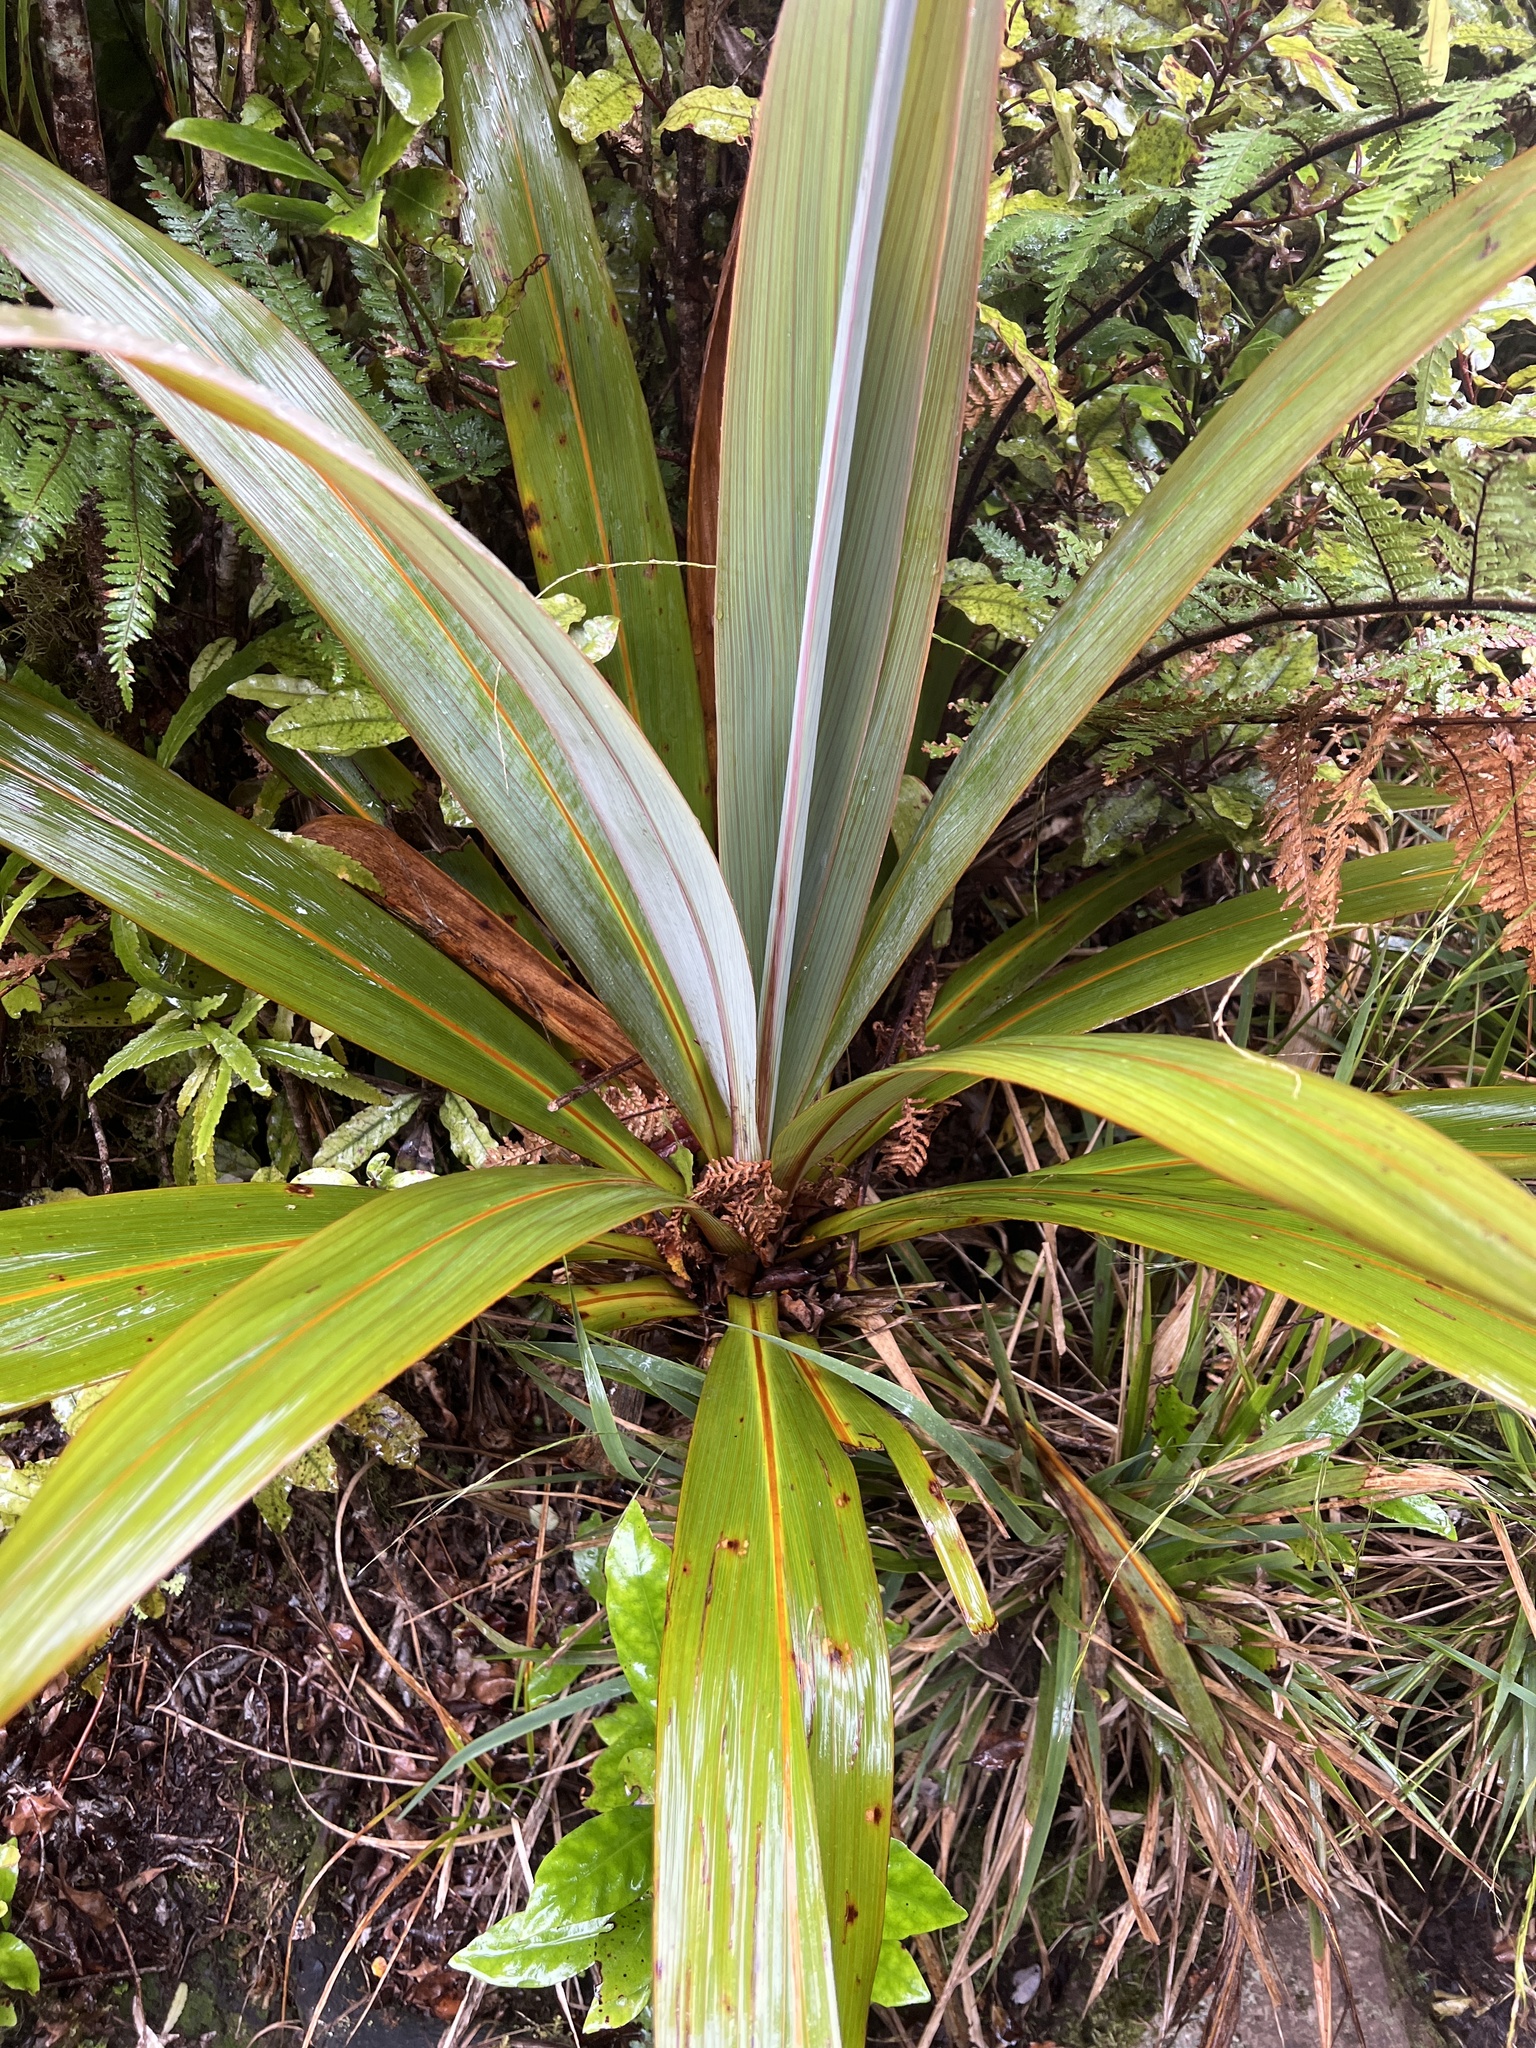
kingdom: Plantae
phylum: Tracheophyta
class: Liliopsida
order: Asparagales
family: Asparagaceae
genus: Cordyline
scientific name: Cordyline indivisa
